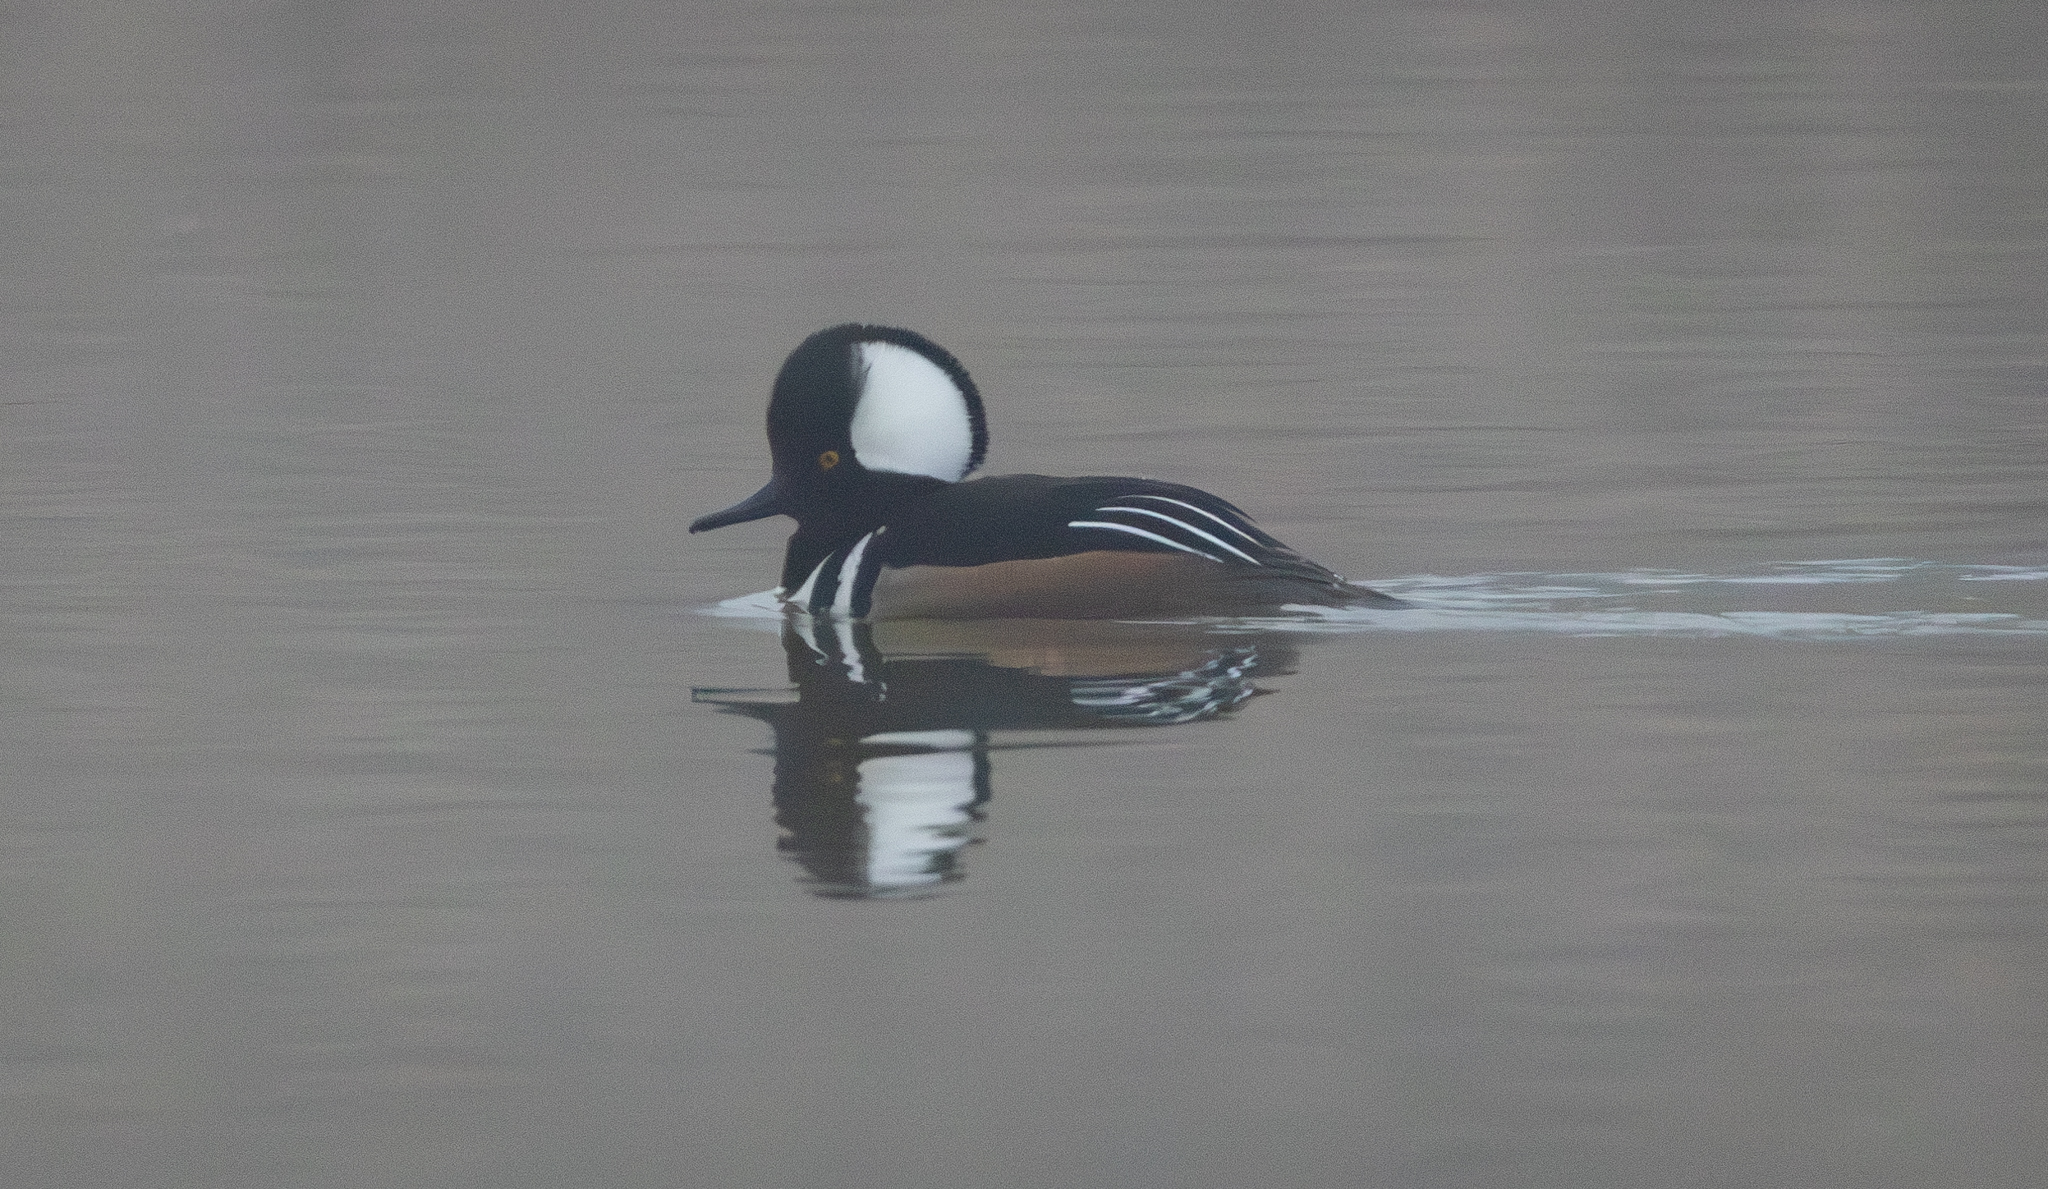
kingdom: Animalia
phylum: Chordata
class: Aves
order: Anseriformes
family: Anatidae
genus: Lophodytes
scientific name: Lophodytes cucullatus
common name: Hooded merganser
